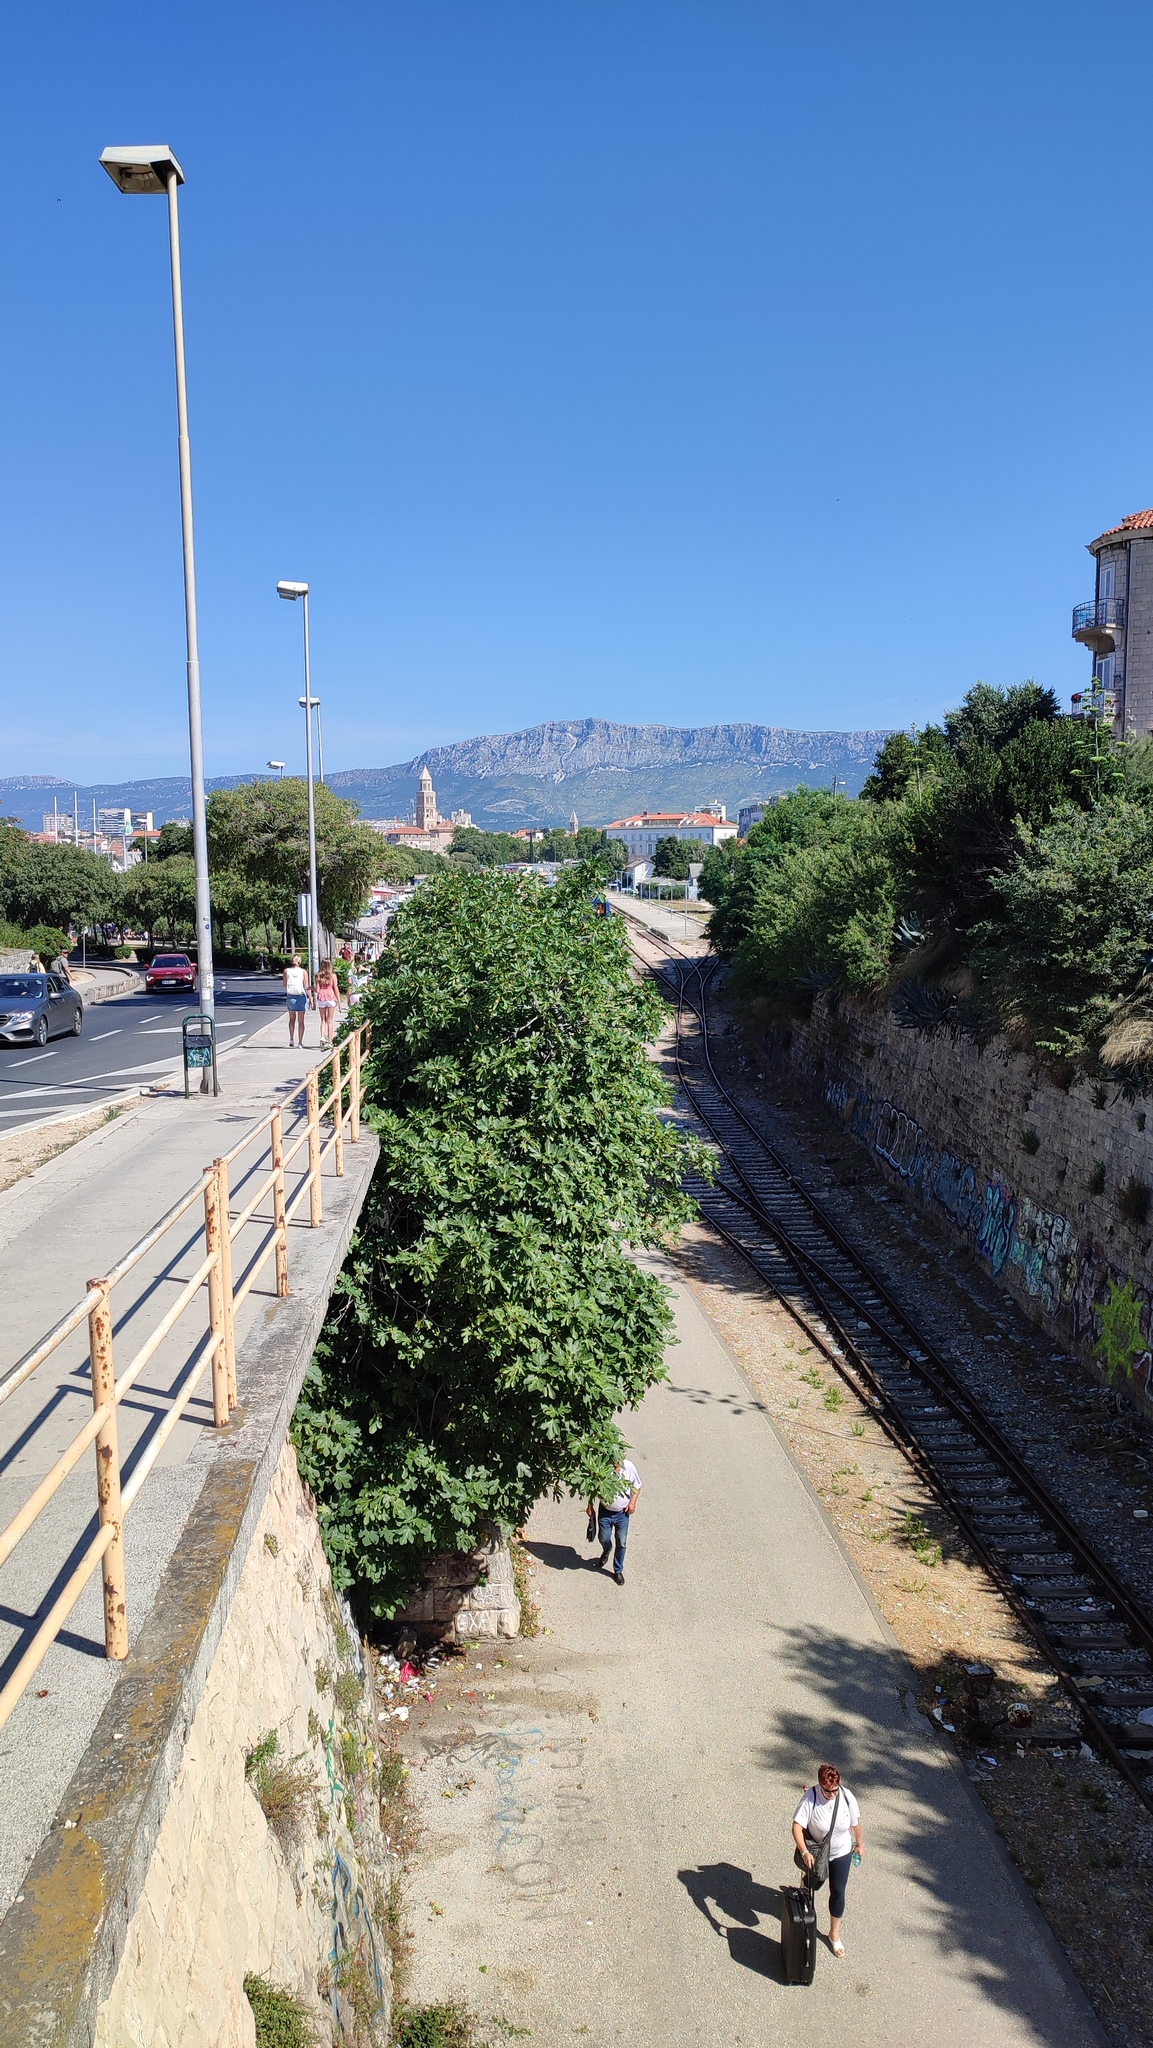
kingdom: Plantae
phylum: Tracheophyta
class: Magnoliopsida
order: Rosales
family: Moraceae
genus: Ficus
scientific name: Ficus carica
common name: Fig
